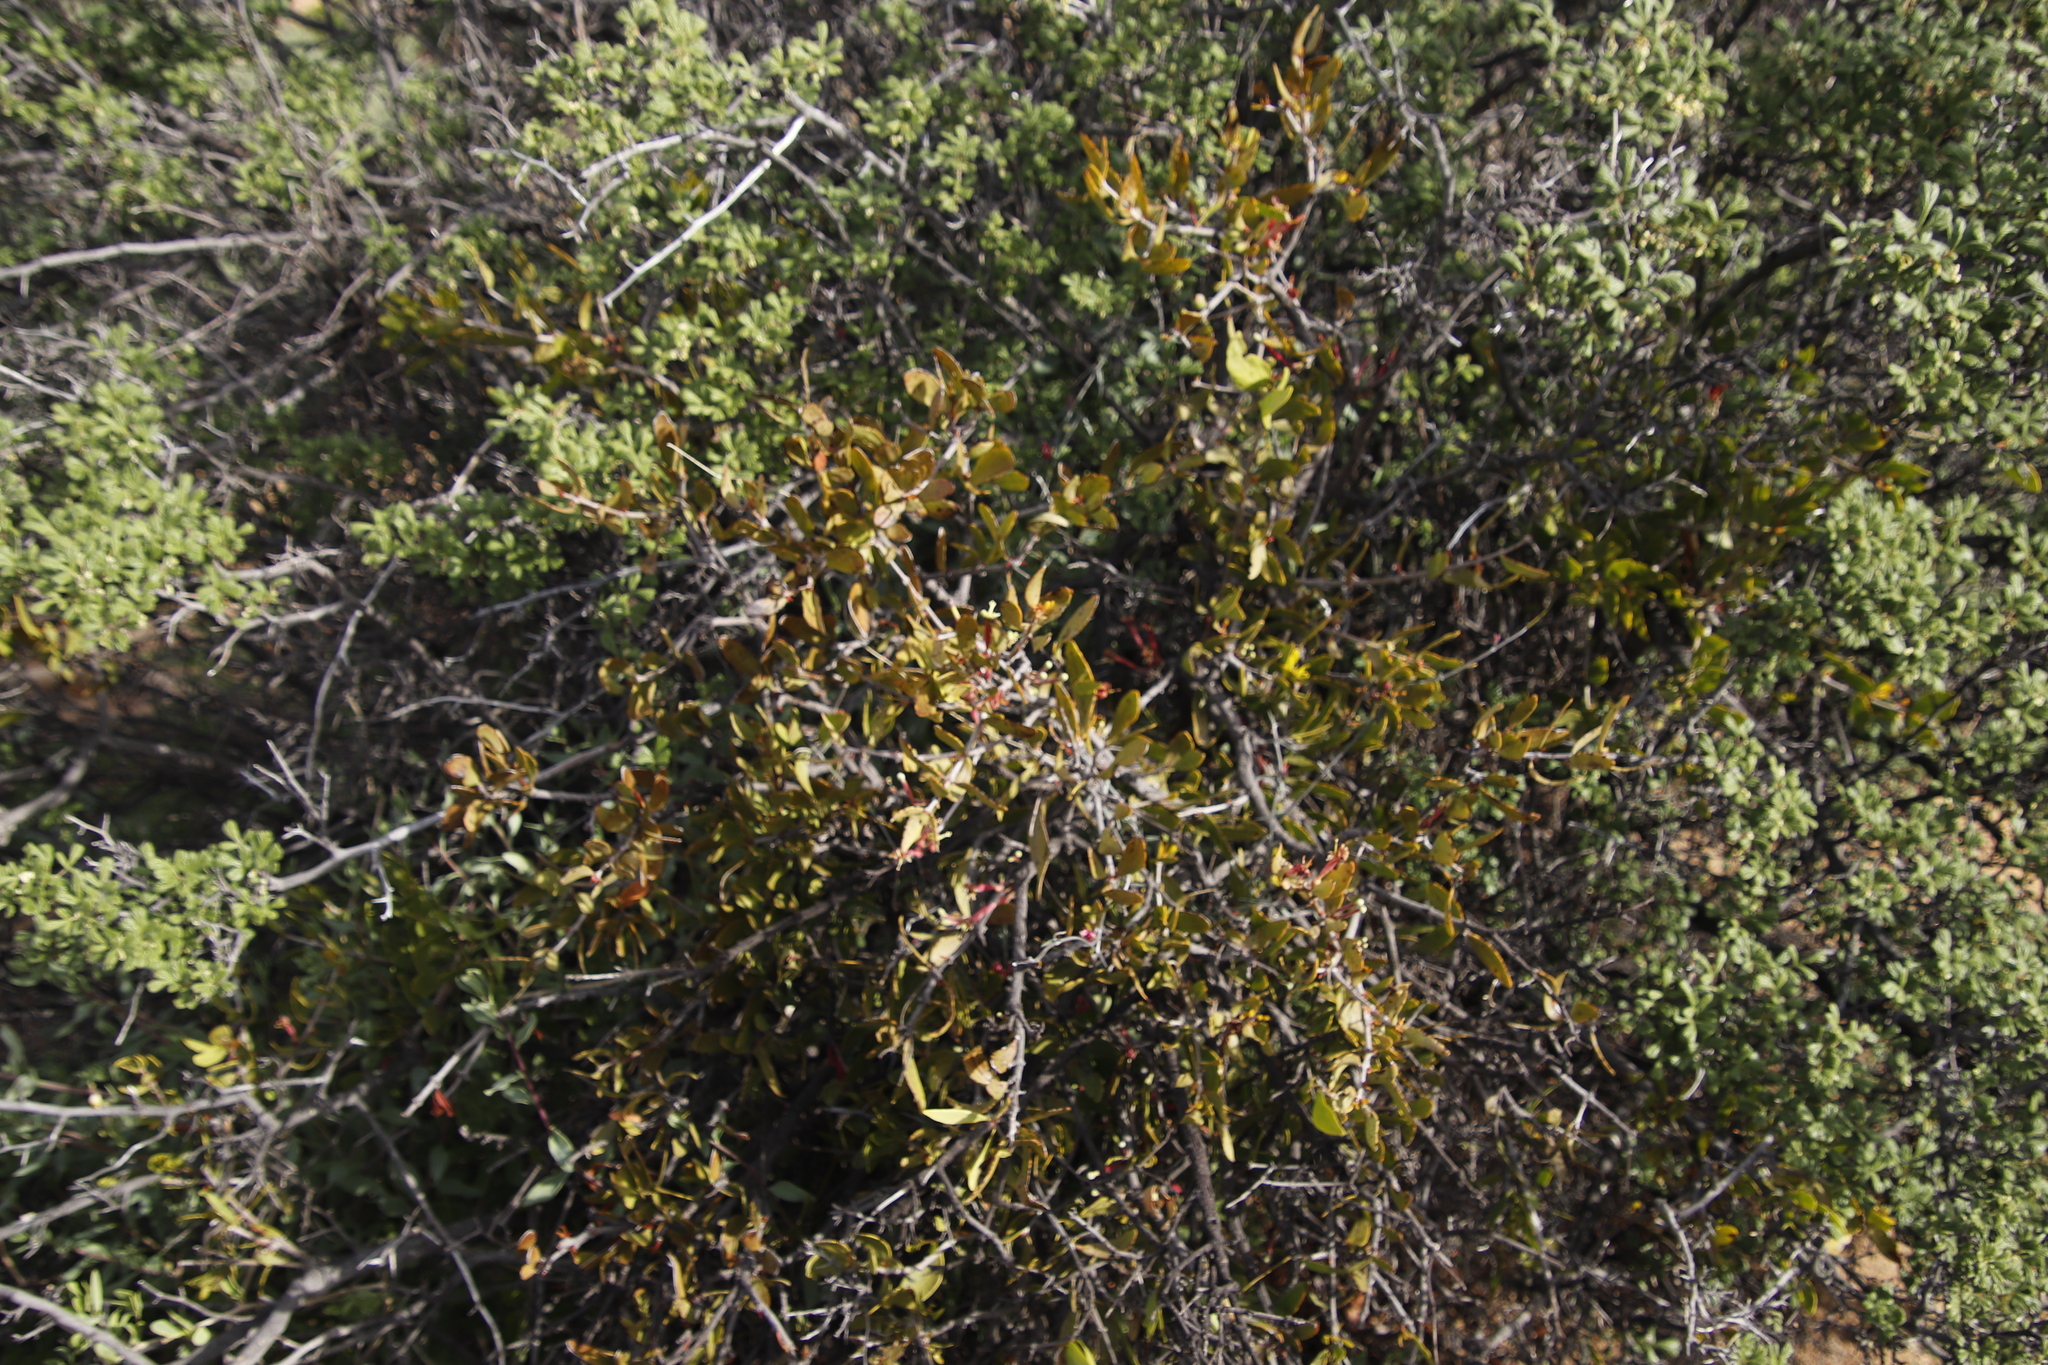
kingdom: Plantae
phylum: Tracheophyta
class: Magnoliopsida
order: Santalales
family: Loranthaceae
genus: Tapinanthus
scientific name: Tapinanthus oleifolius
